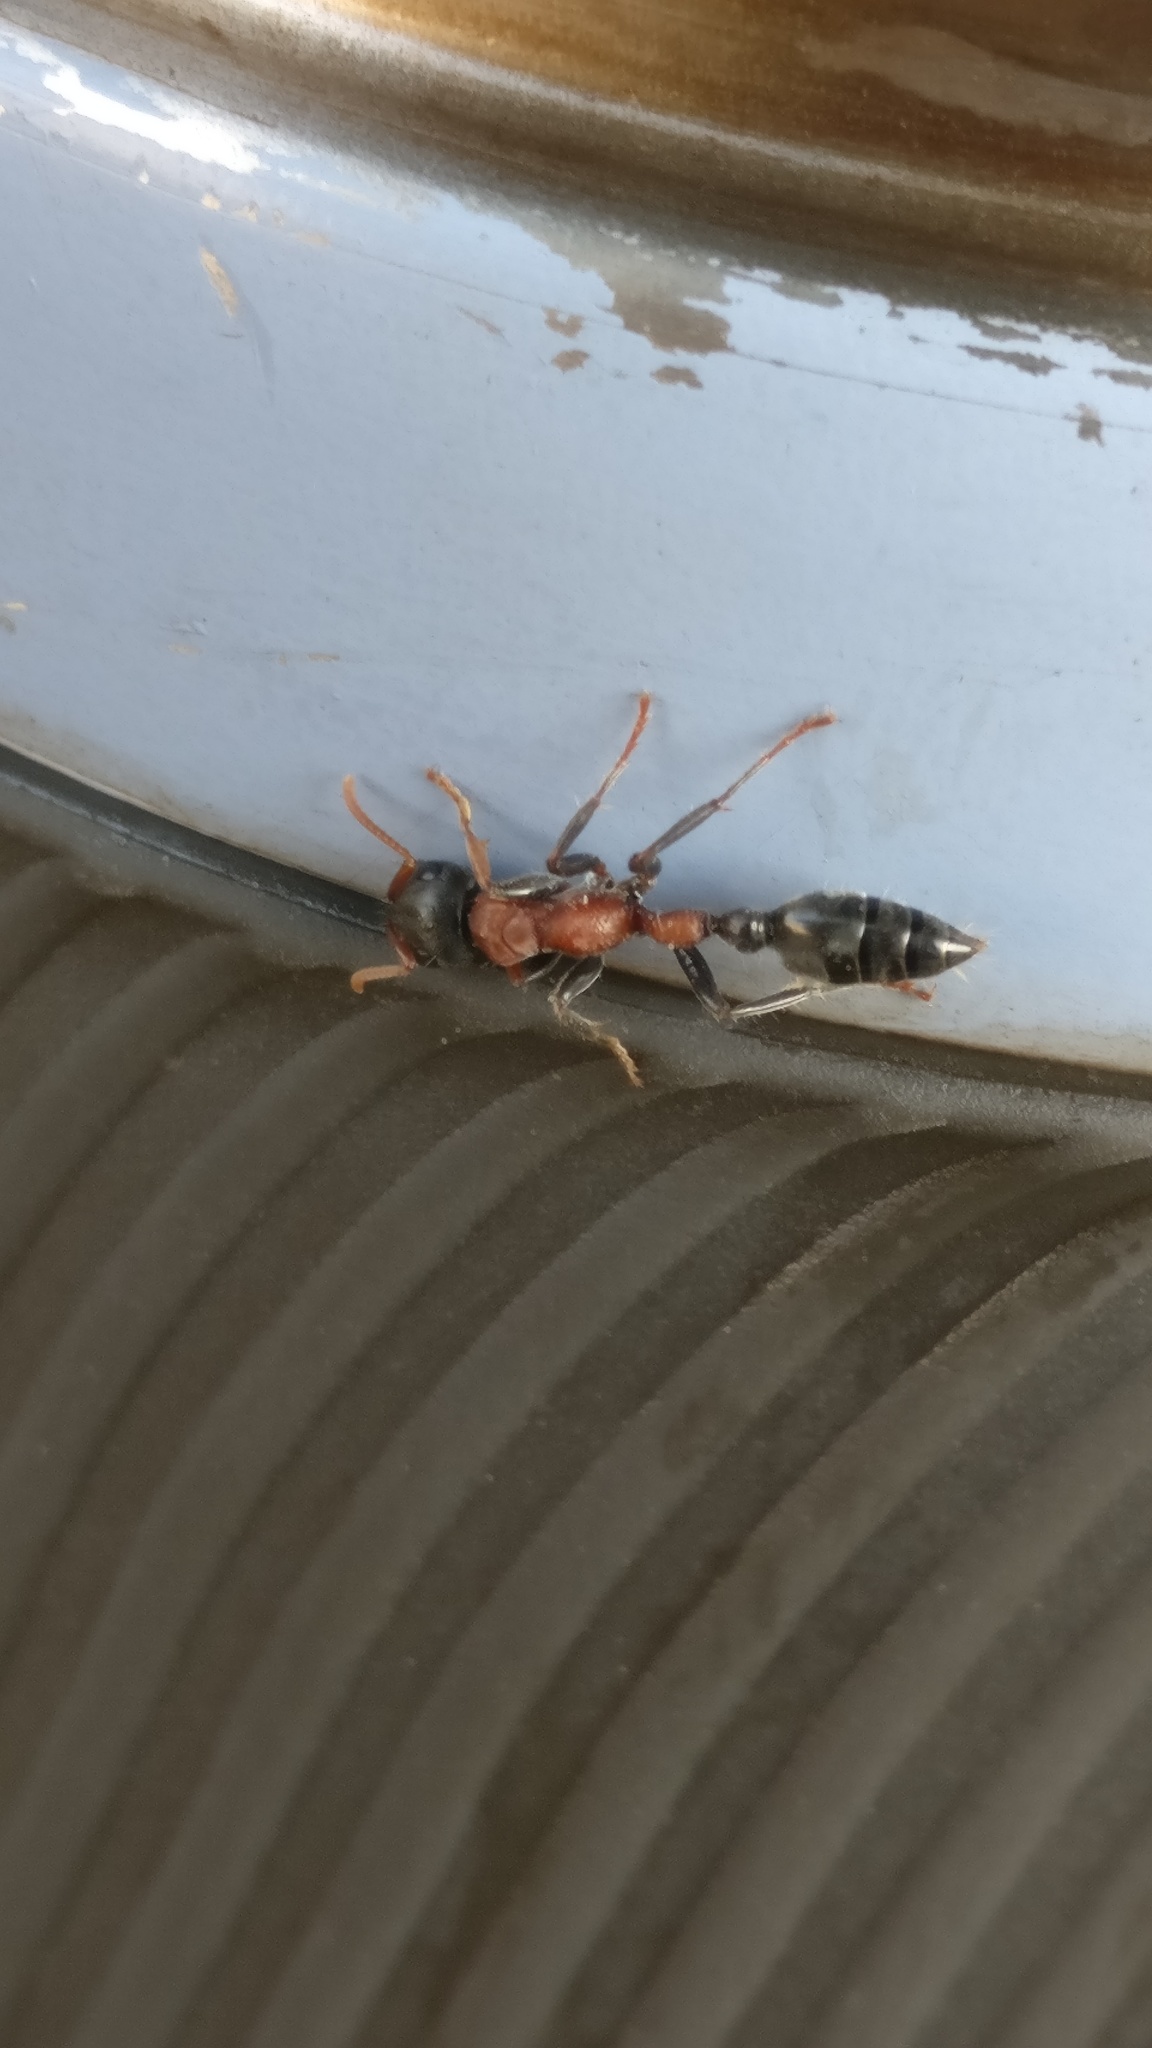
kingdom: Animalia
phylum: Arthropoda
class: Insecta
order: Hymenoptera
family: Formicidae
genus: Tetraponera
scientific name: Tetraponera rufonigra
